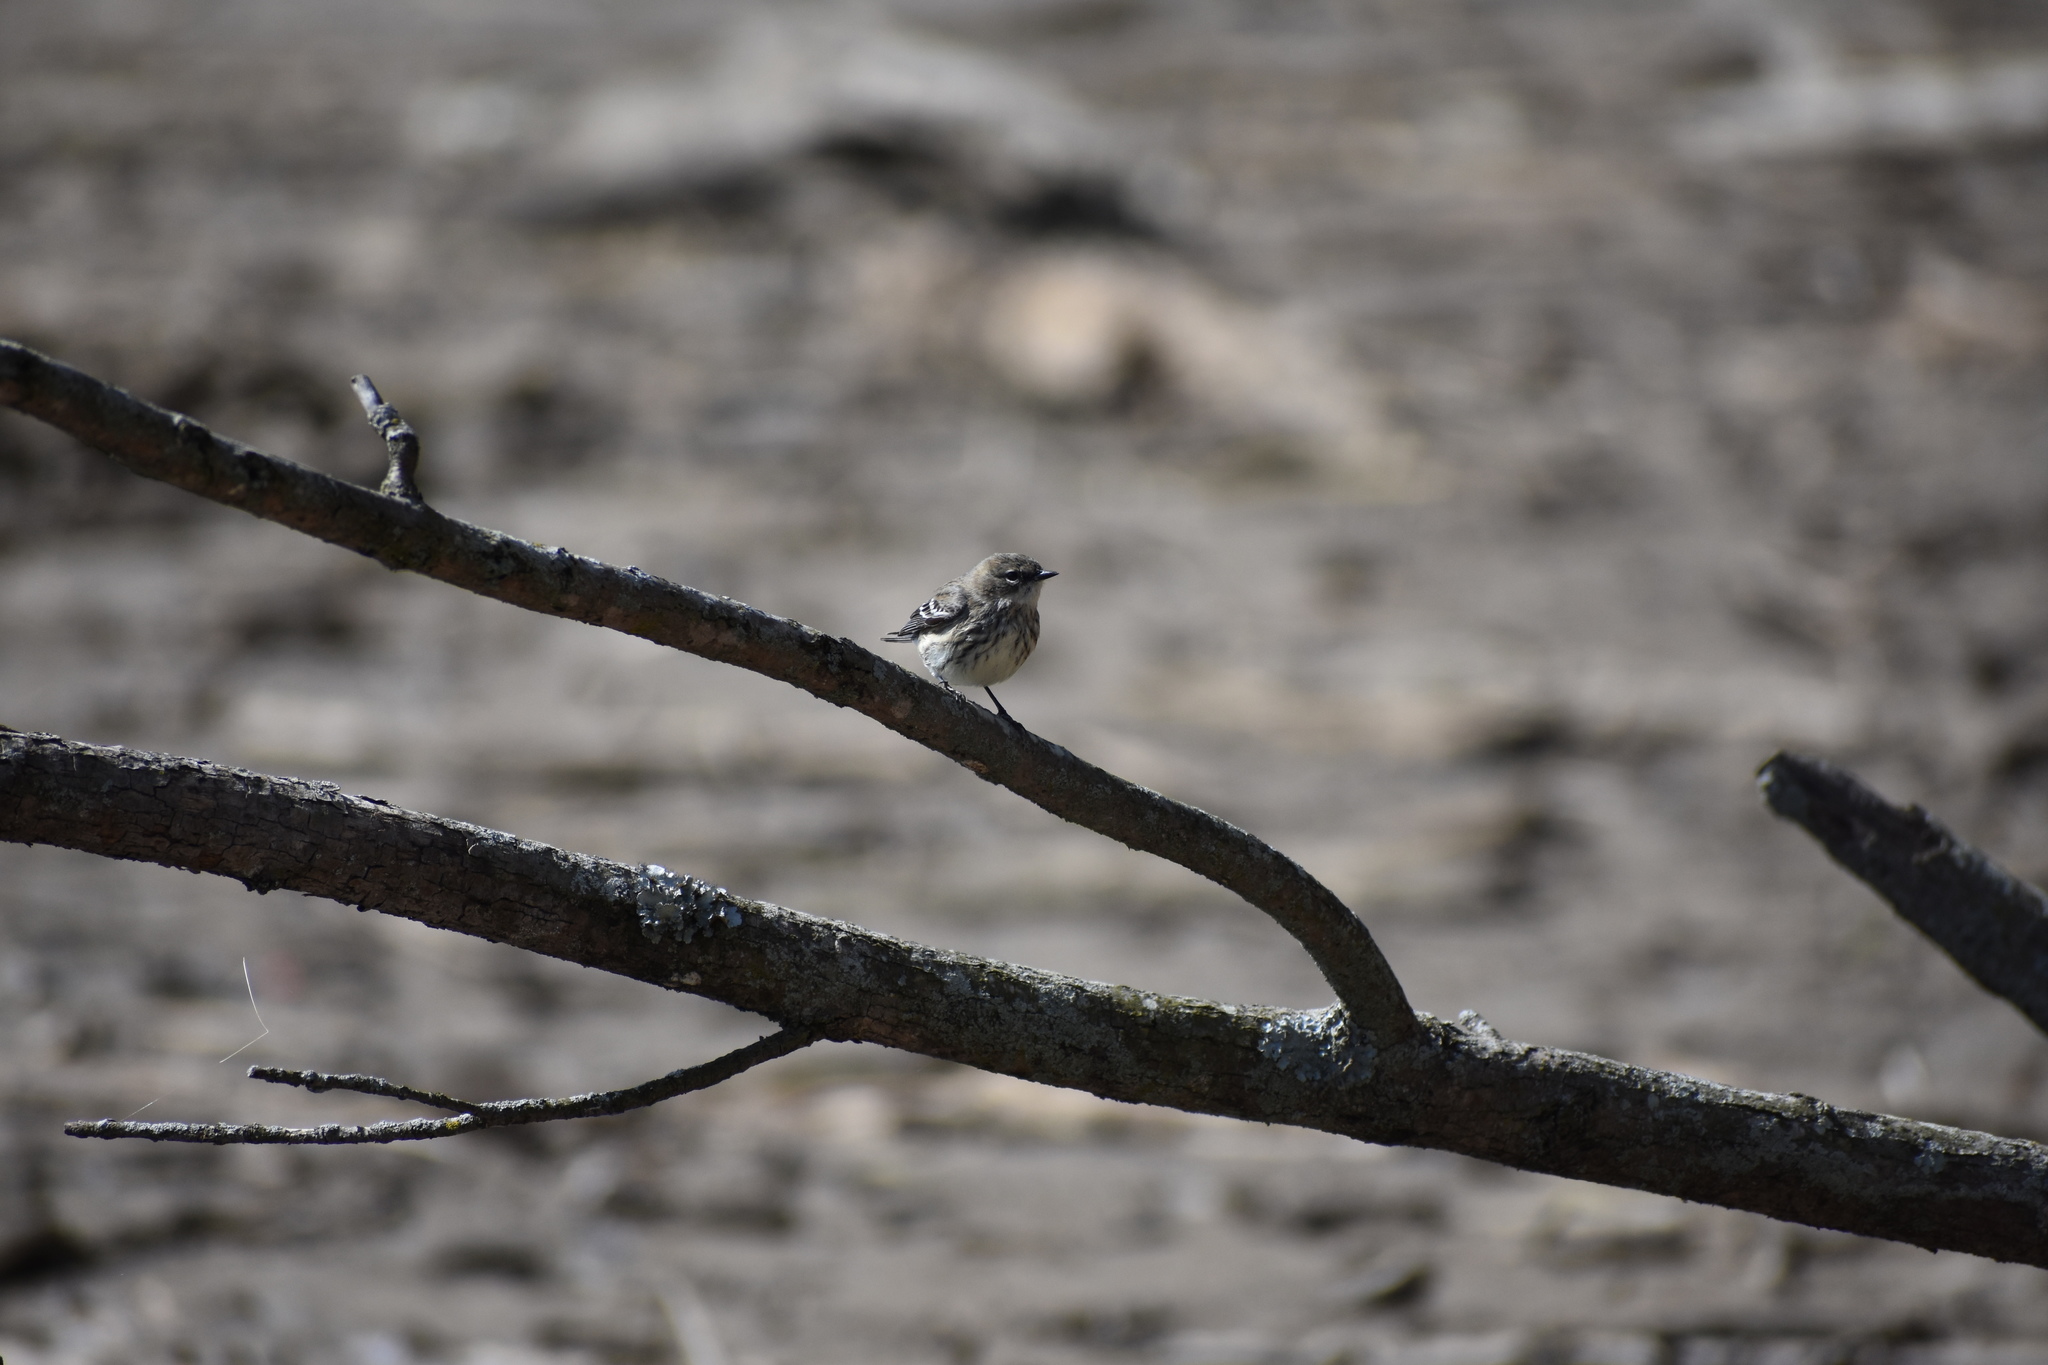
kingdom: Animalia
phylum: Chordata
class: Aves
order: Passeriformes
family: Parulidae
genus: Setophaga
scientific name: Setophaga coronata
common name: Myrtle warbler
